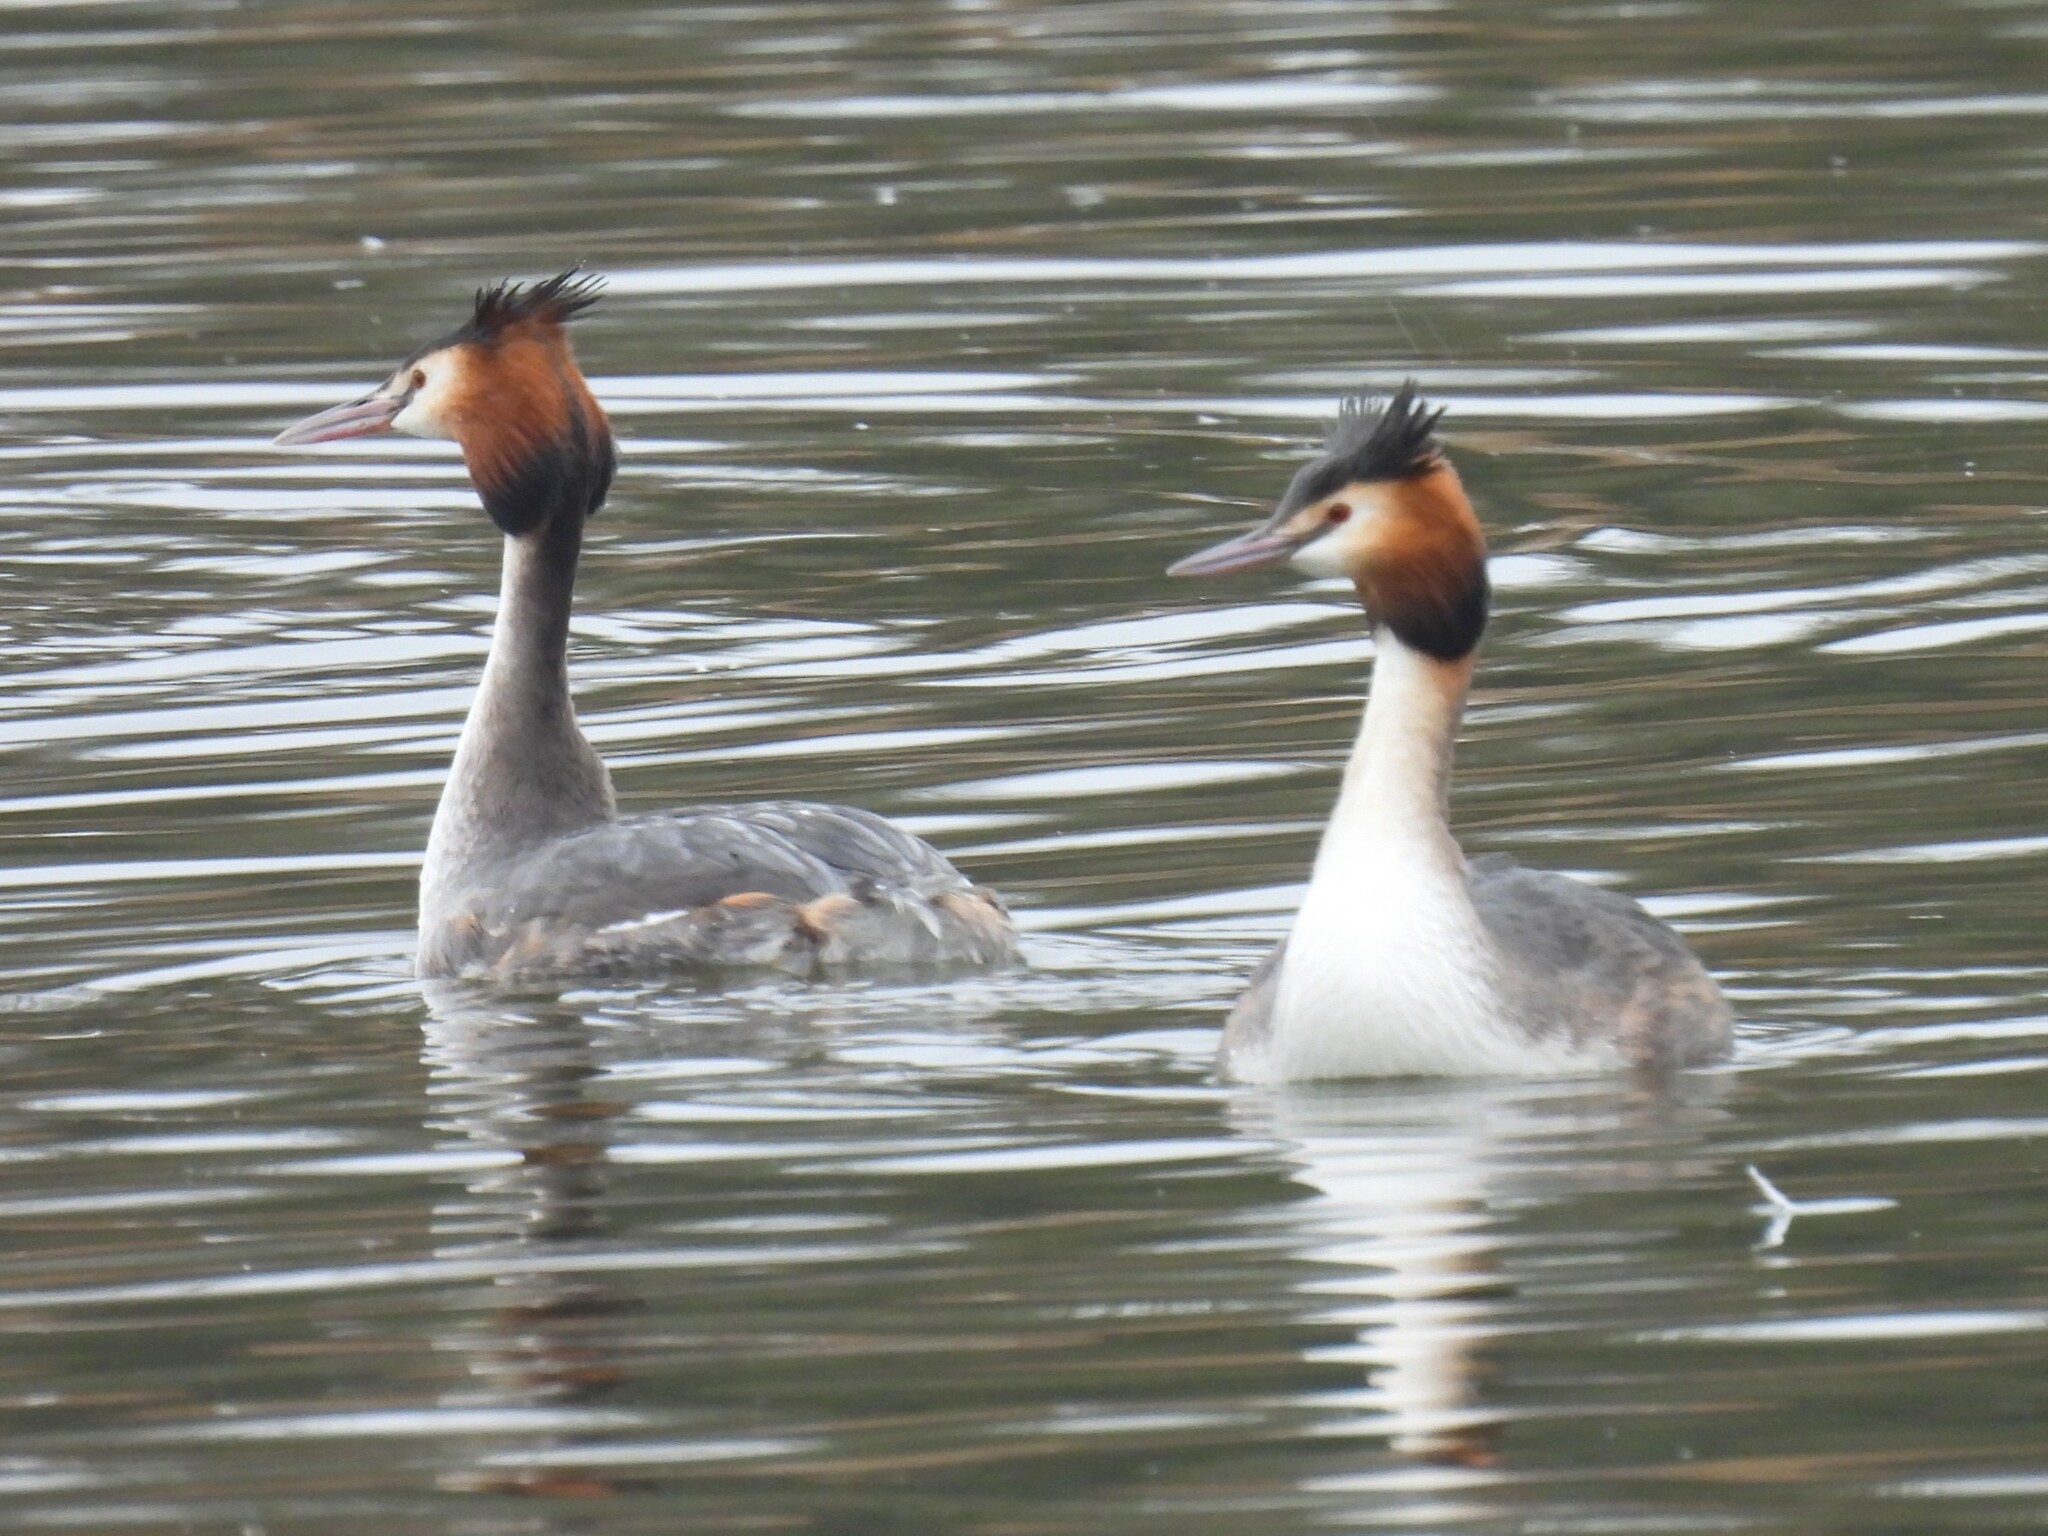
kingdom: Animalia
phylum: Chordata
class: Aves
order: Podicipediformes
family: Podicipedidae
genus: Podiceps
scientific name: Podiceps cristatus
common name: Great crested grebe
